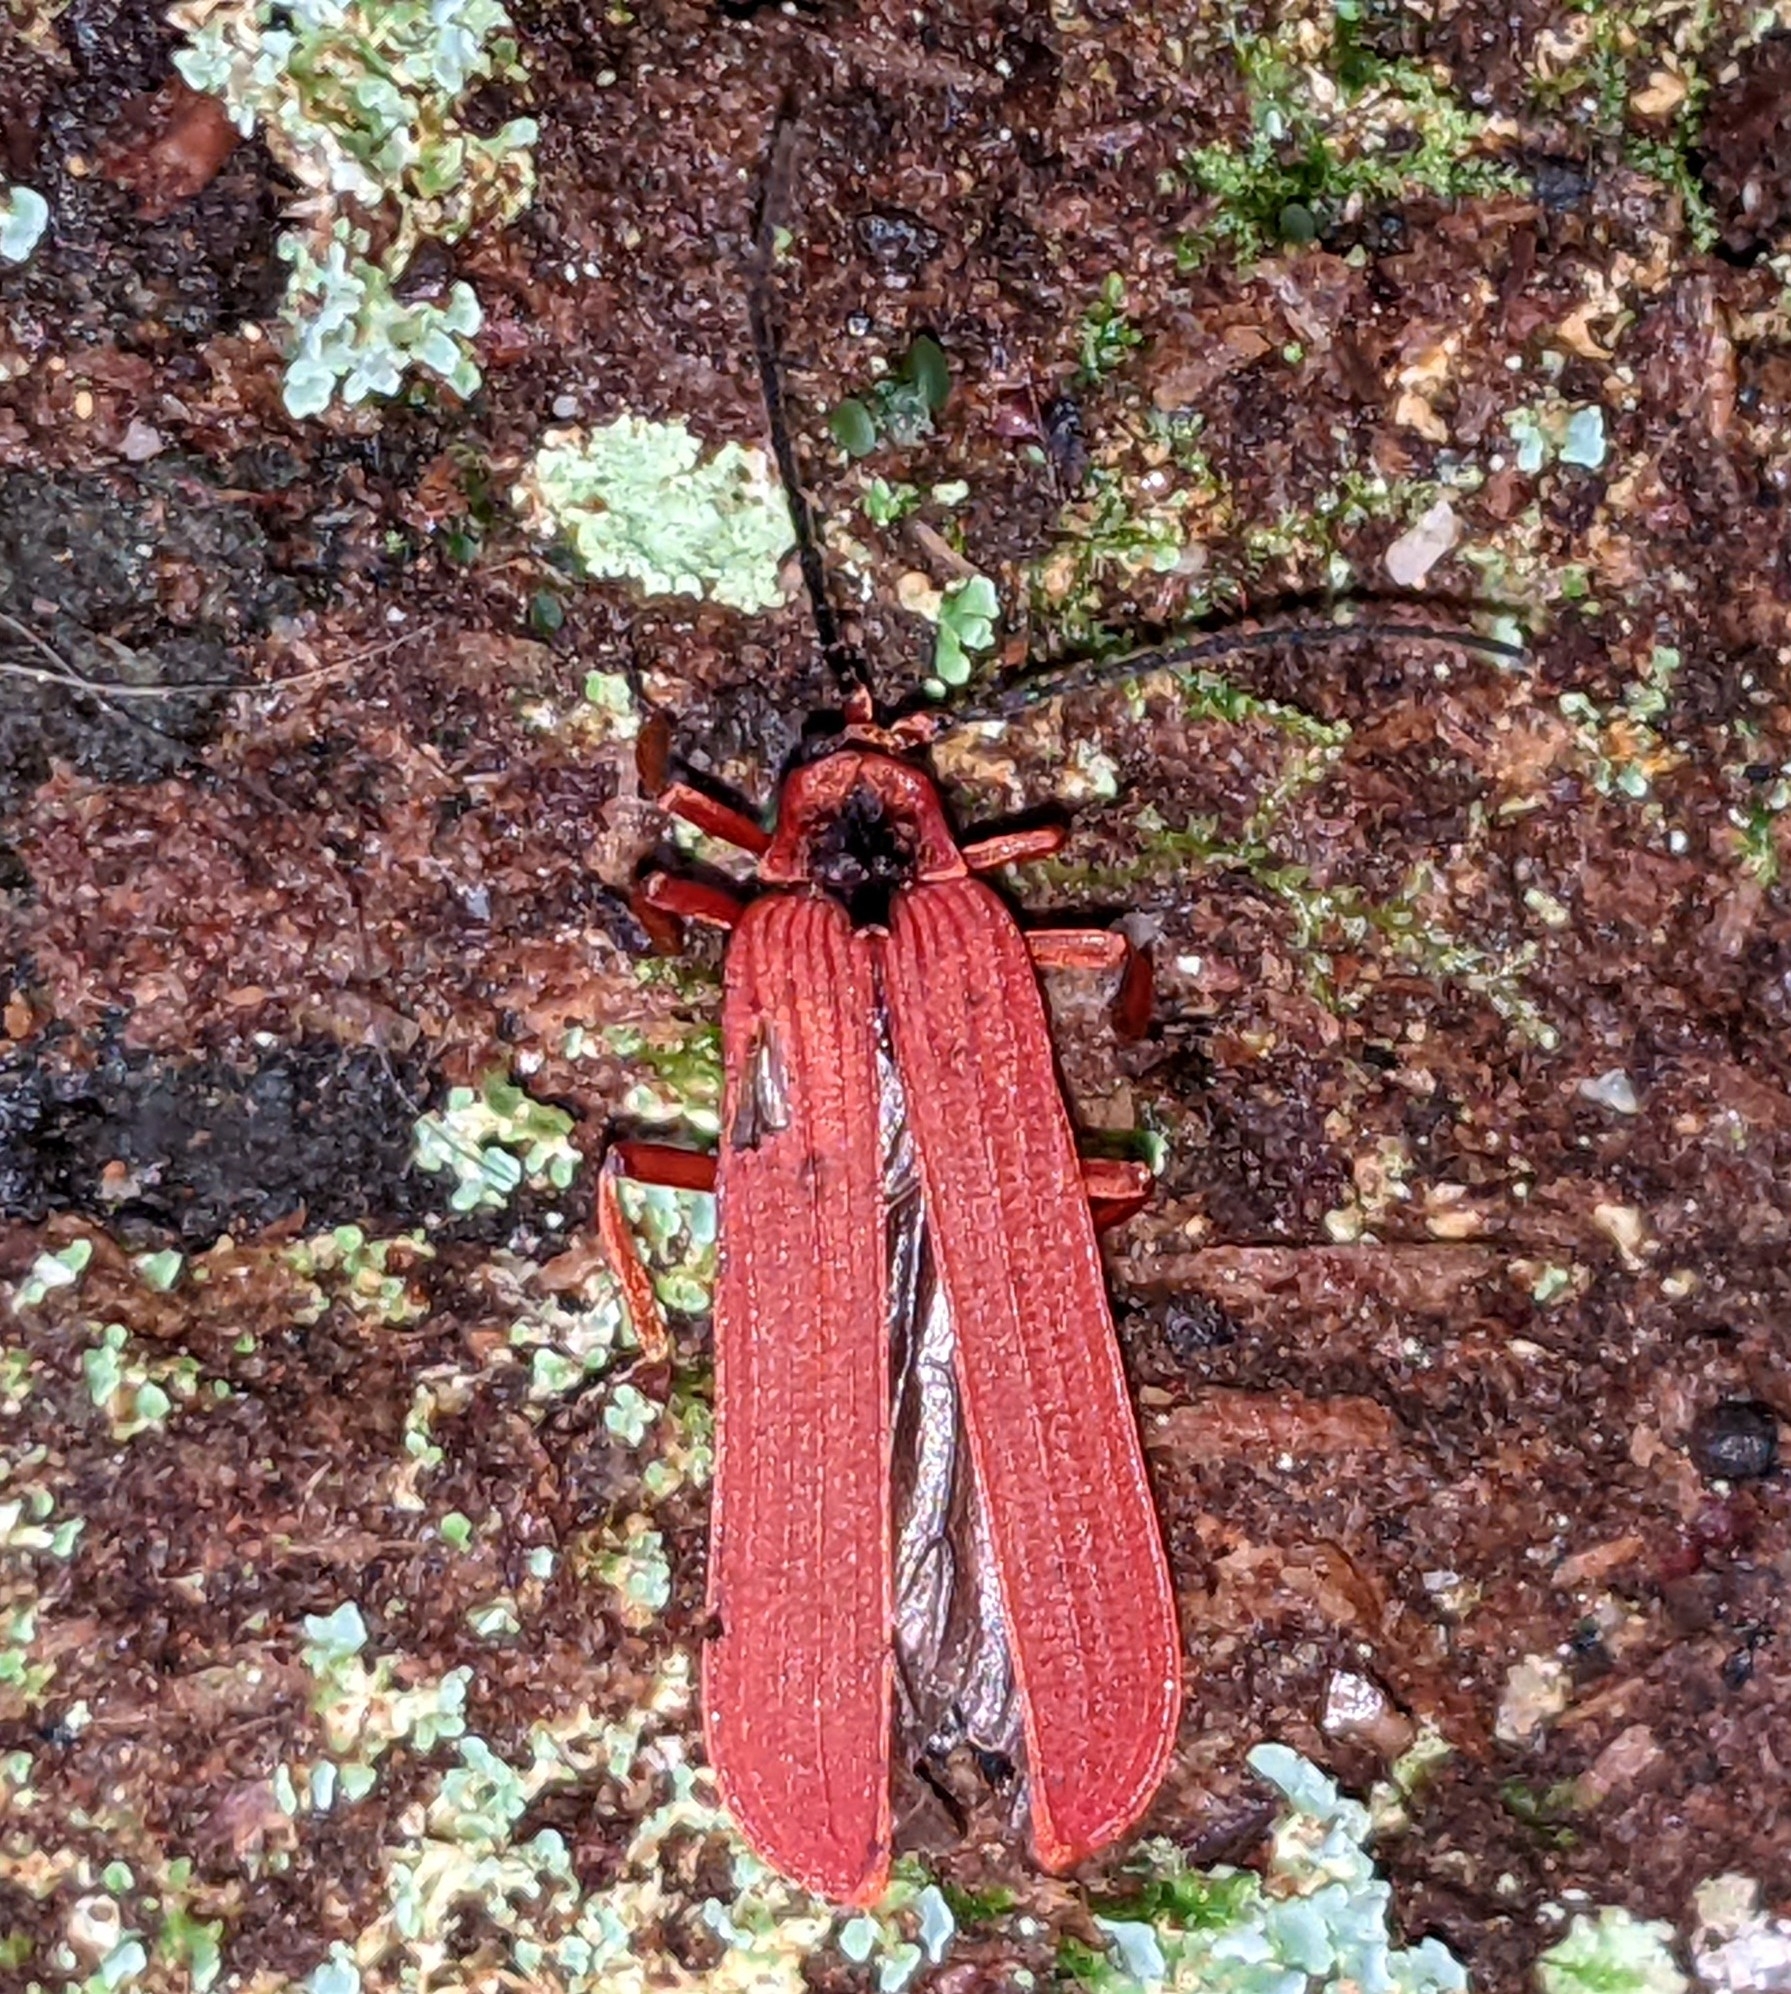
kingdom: Animalia
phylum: Arthropoda
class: Insecta
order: Coleoptera
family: Lycidae
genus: Dictyoptera
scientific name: Dictyoptera simplicipes
